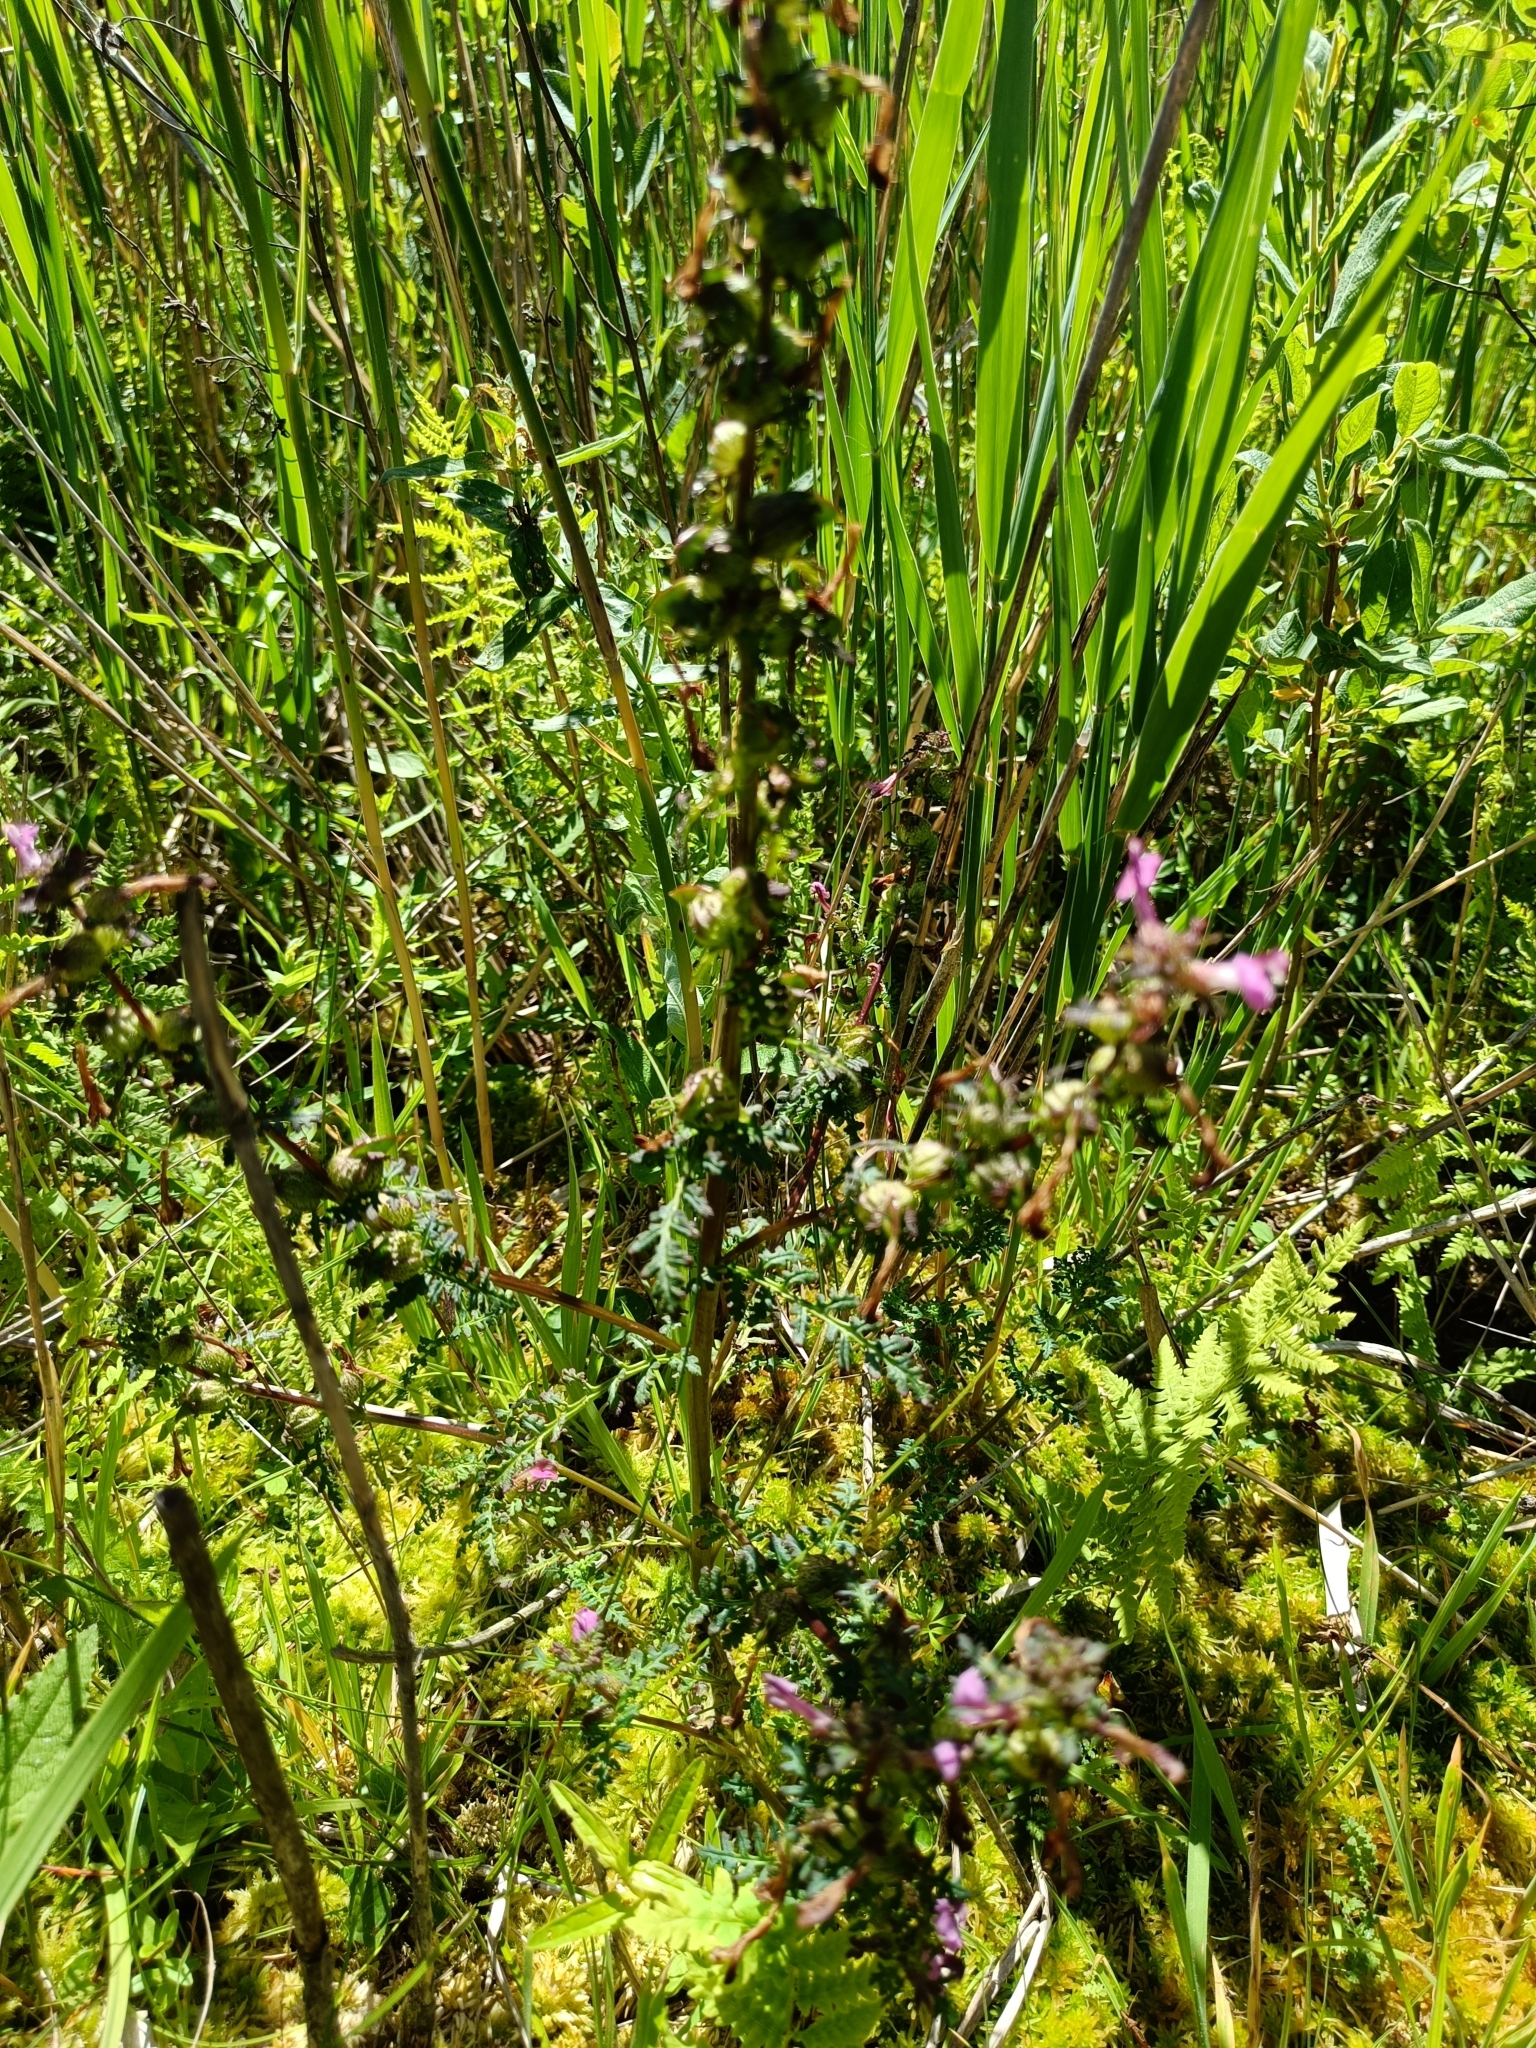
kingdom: Plantae
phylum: Tracheophyta
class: Magnoliopsida
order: Lamiales
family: Orobanchaceae
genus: Pedicularis
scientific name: Pedicularis palustris
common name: Marsh lousewort
